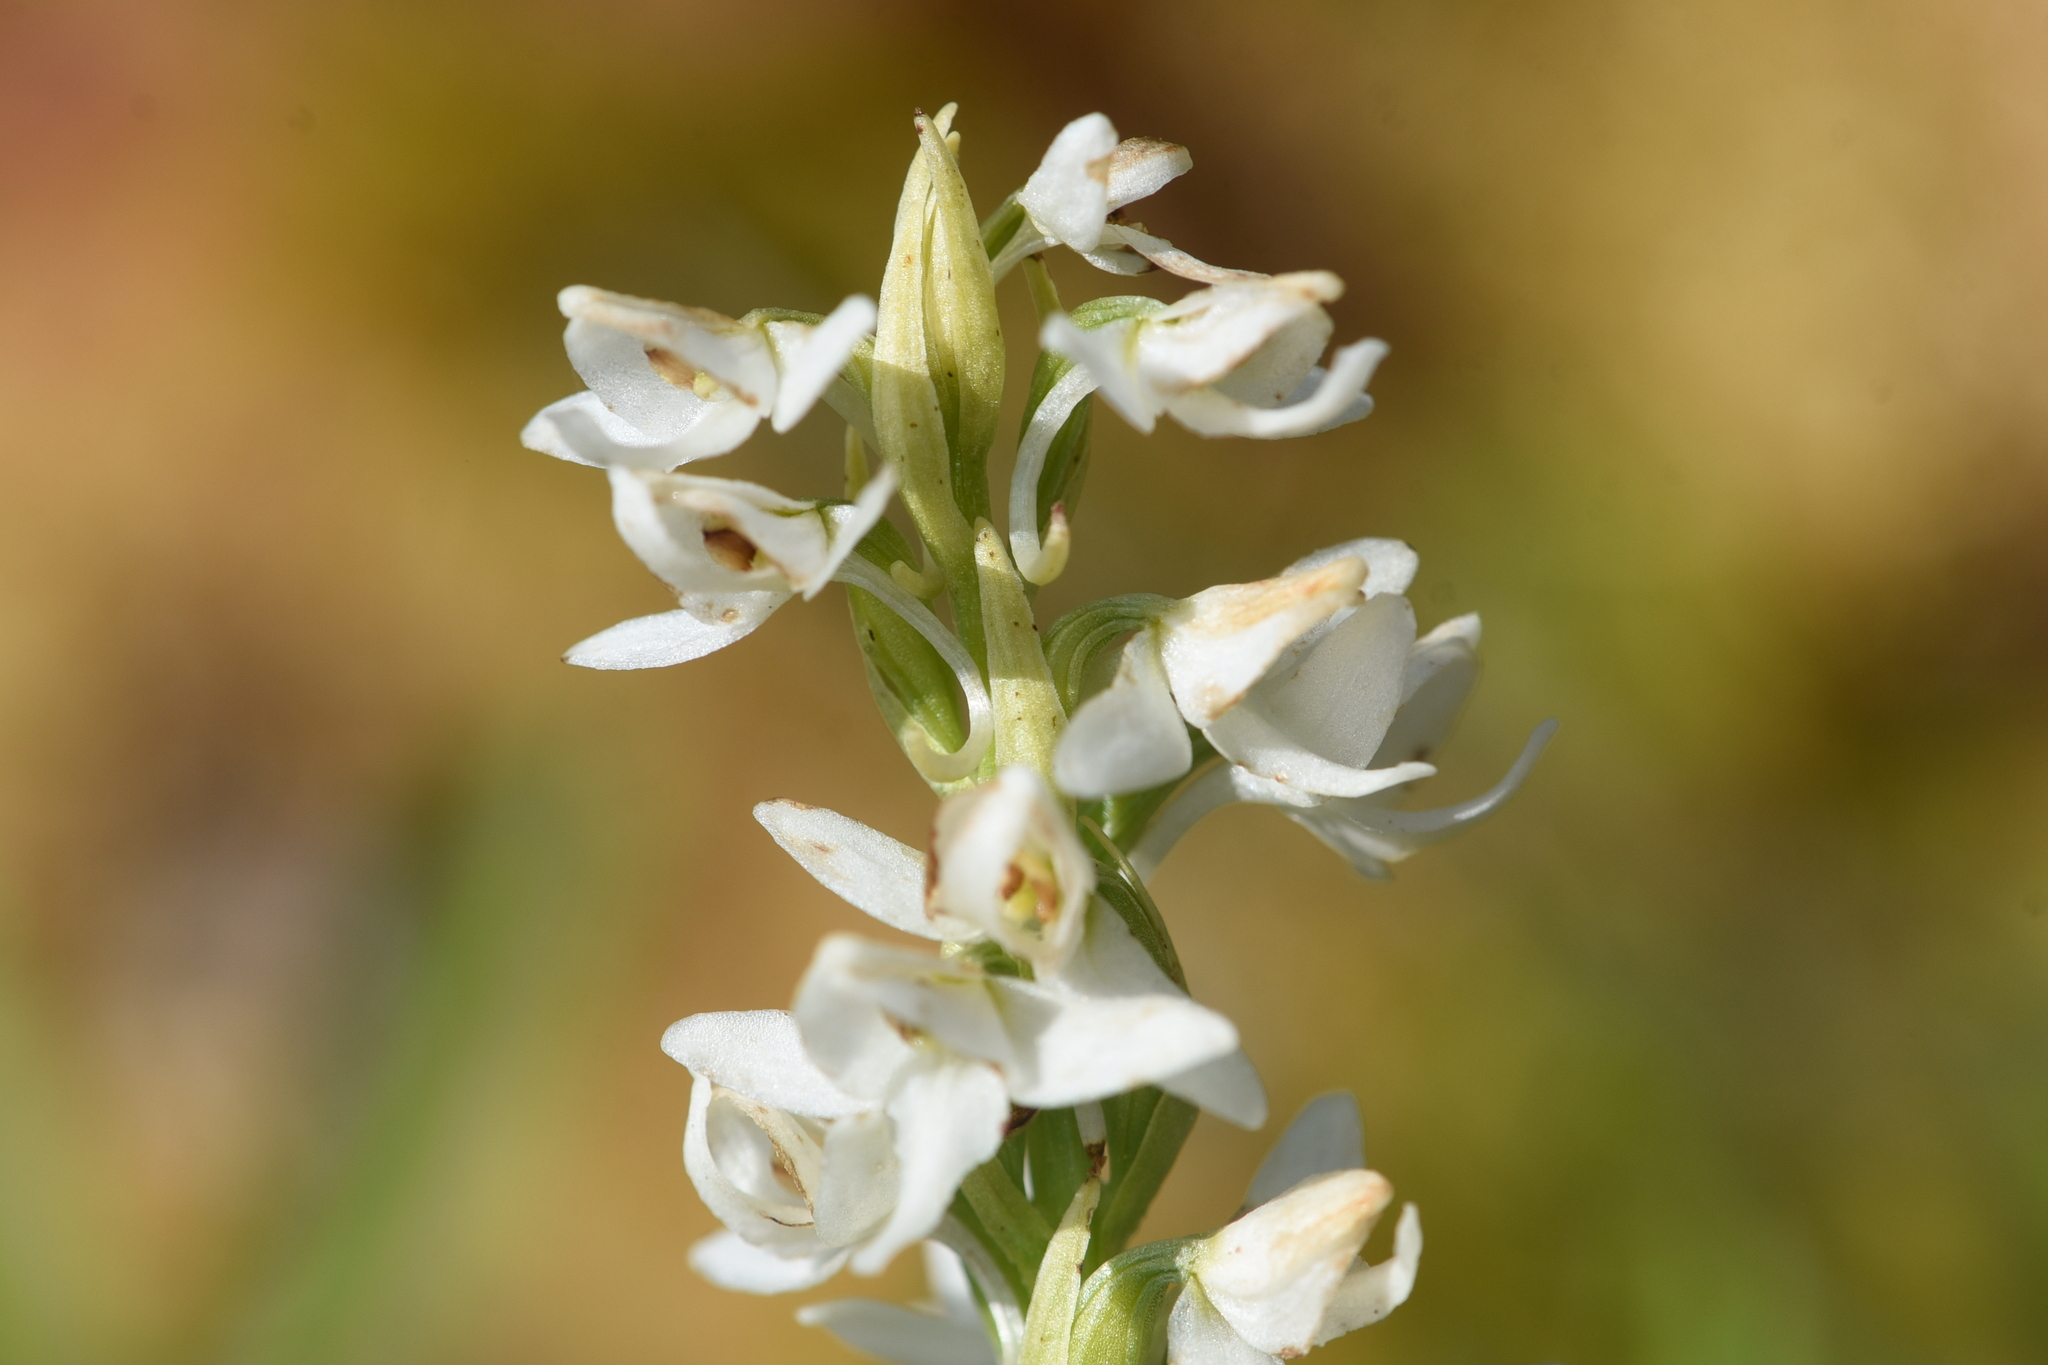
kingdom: Plantae
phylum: Tracheophyta
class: Liliopsida
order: Asparagales
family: Orchidaceae
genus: Platanthera
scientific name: Platanthera dilatata
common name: Bog candles
